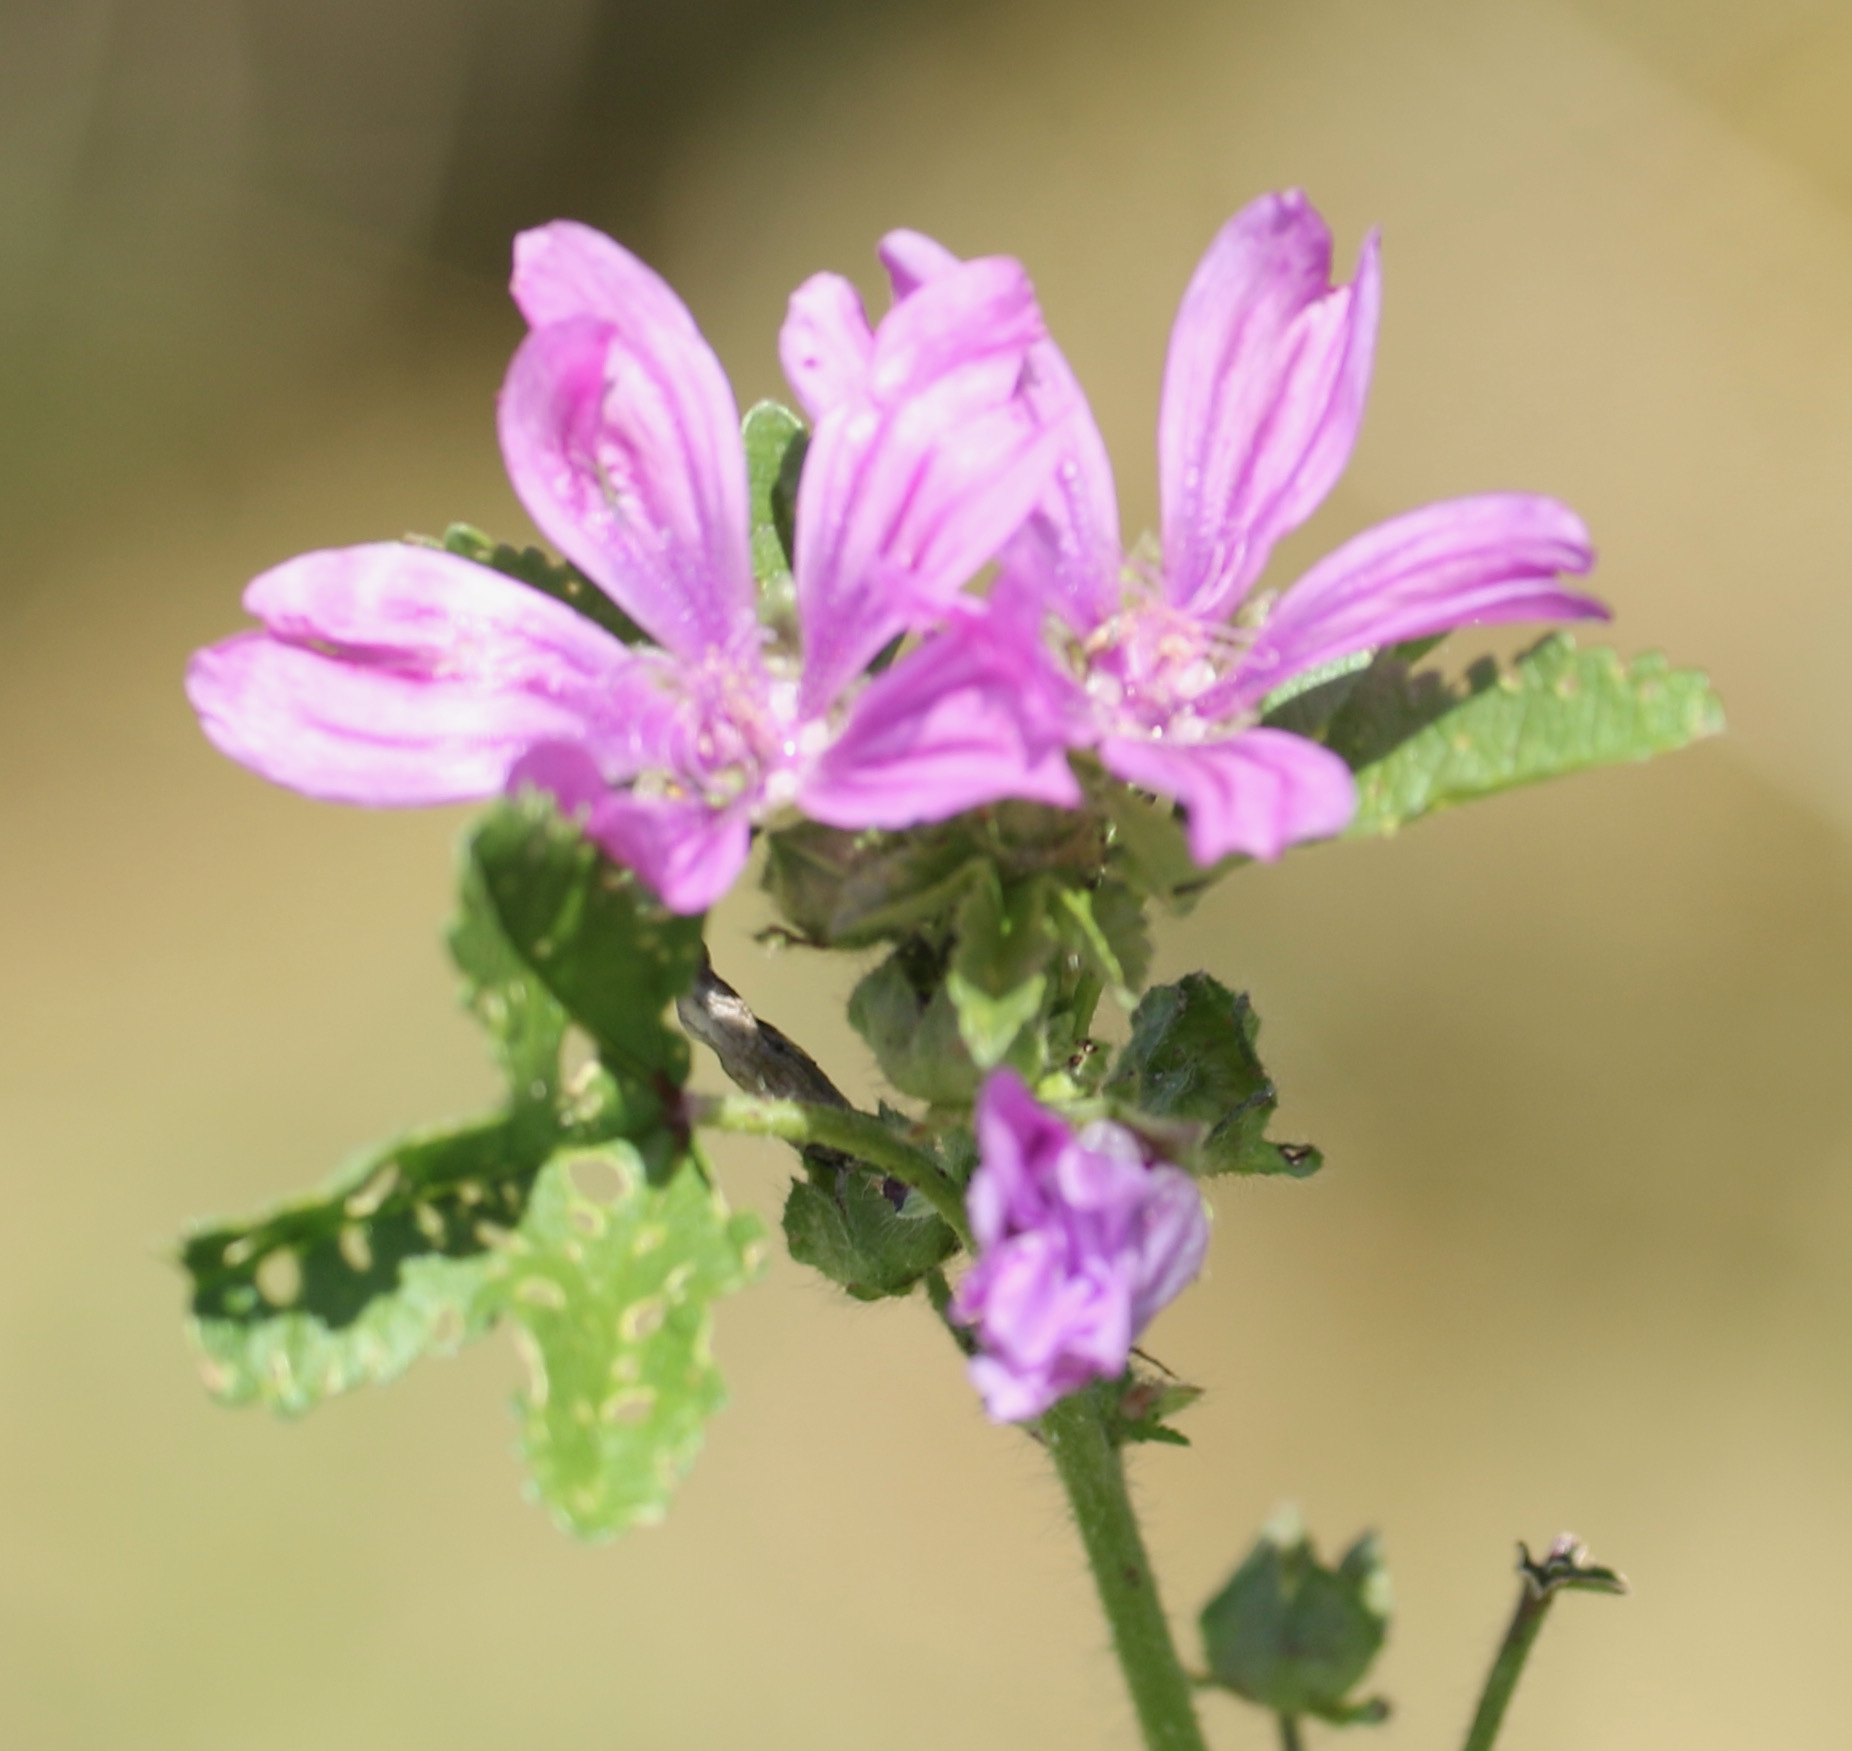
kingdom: Plantae
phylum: Tracheophyta
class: Magnoliopsida
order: Malvales
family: Malvaceae
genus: Malva
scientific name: Malva sylvestris
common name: Common mallow
